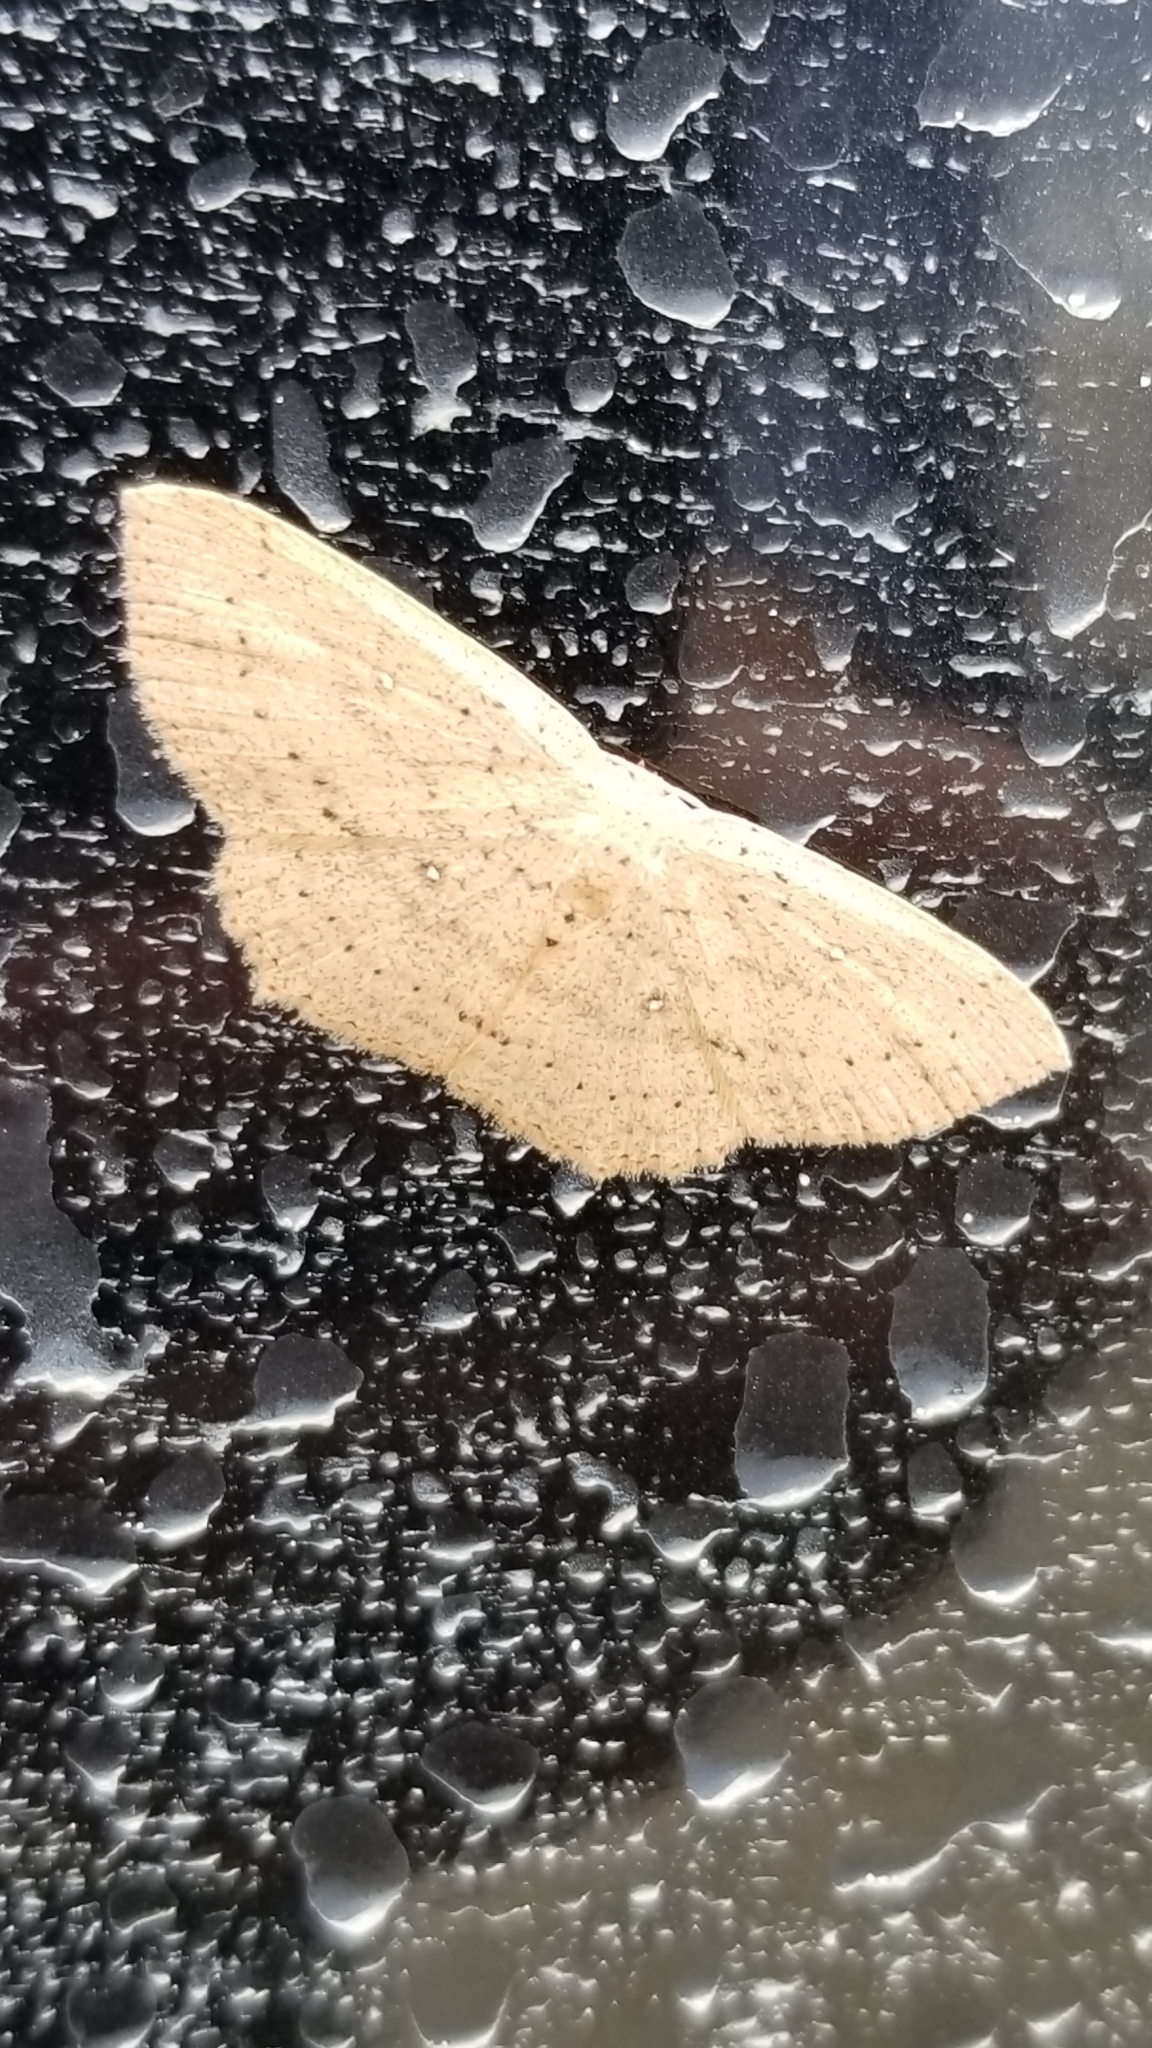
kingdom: Animalia
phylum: Arthropoda
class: Insecta
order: Lepidoptera
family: Geometridae
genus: Cyclophora
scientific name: Cyclophora myrtaria
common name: Waxmyrtle wave moth
